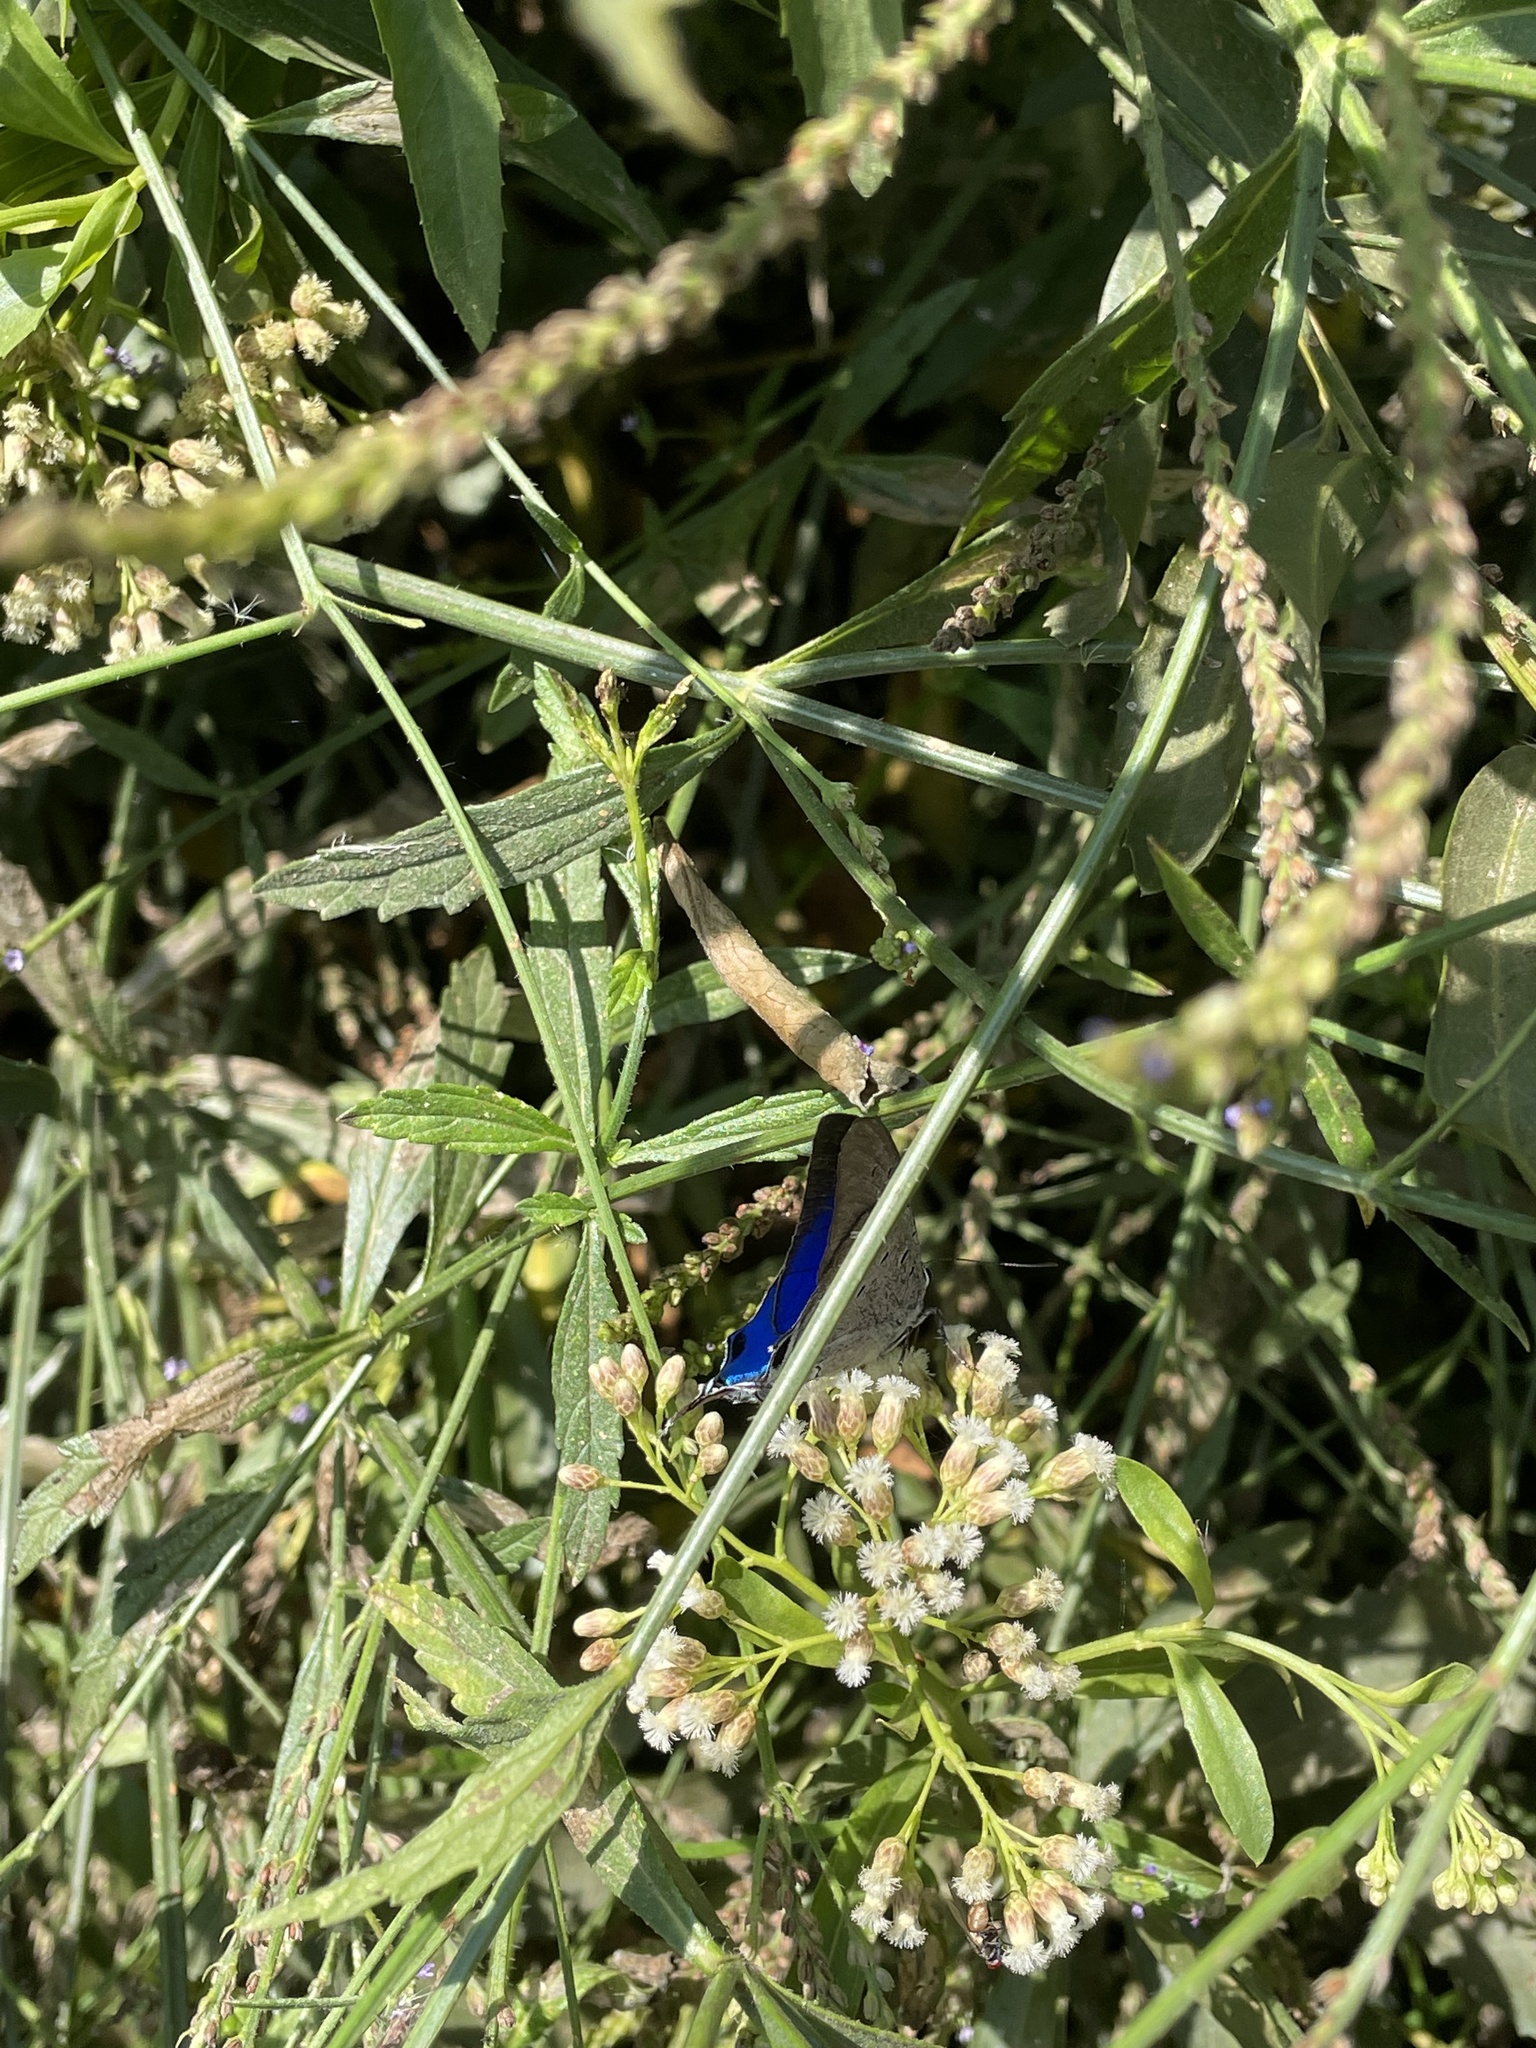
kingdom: Animalia
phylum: Arthropoda
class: Insecta
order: Lepidoptera
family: Lycaenidae
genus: Pseudolycaena
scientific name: Pseudolycaena marsyas
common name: Marsyas hairstreak
